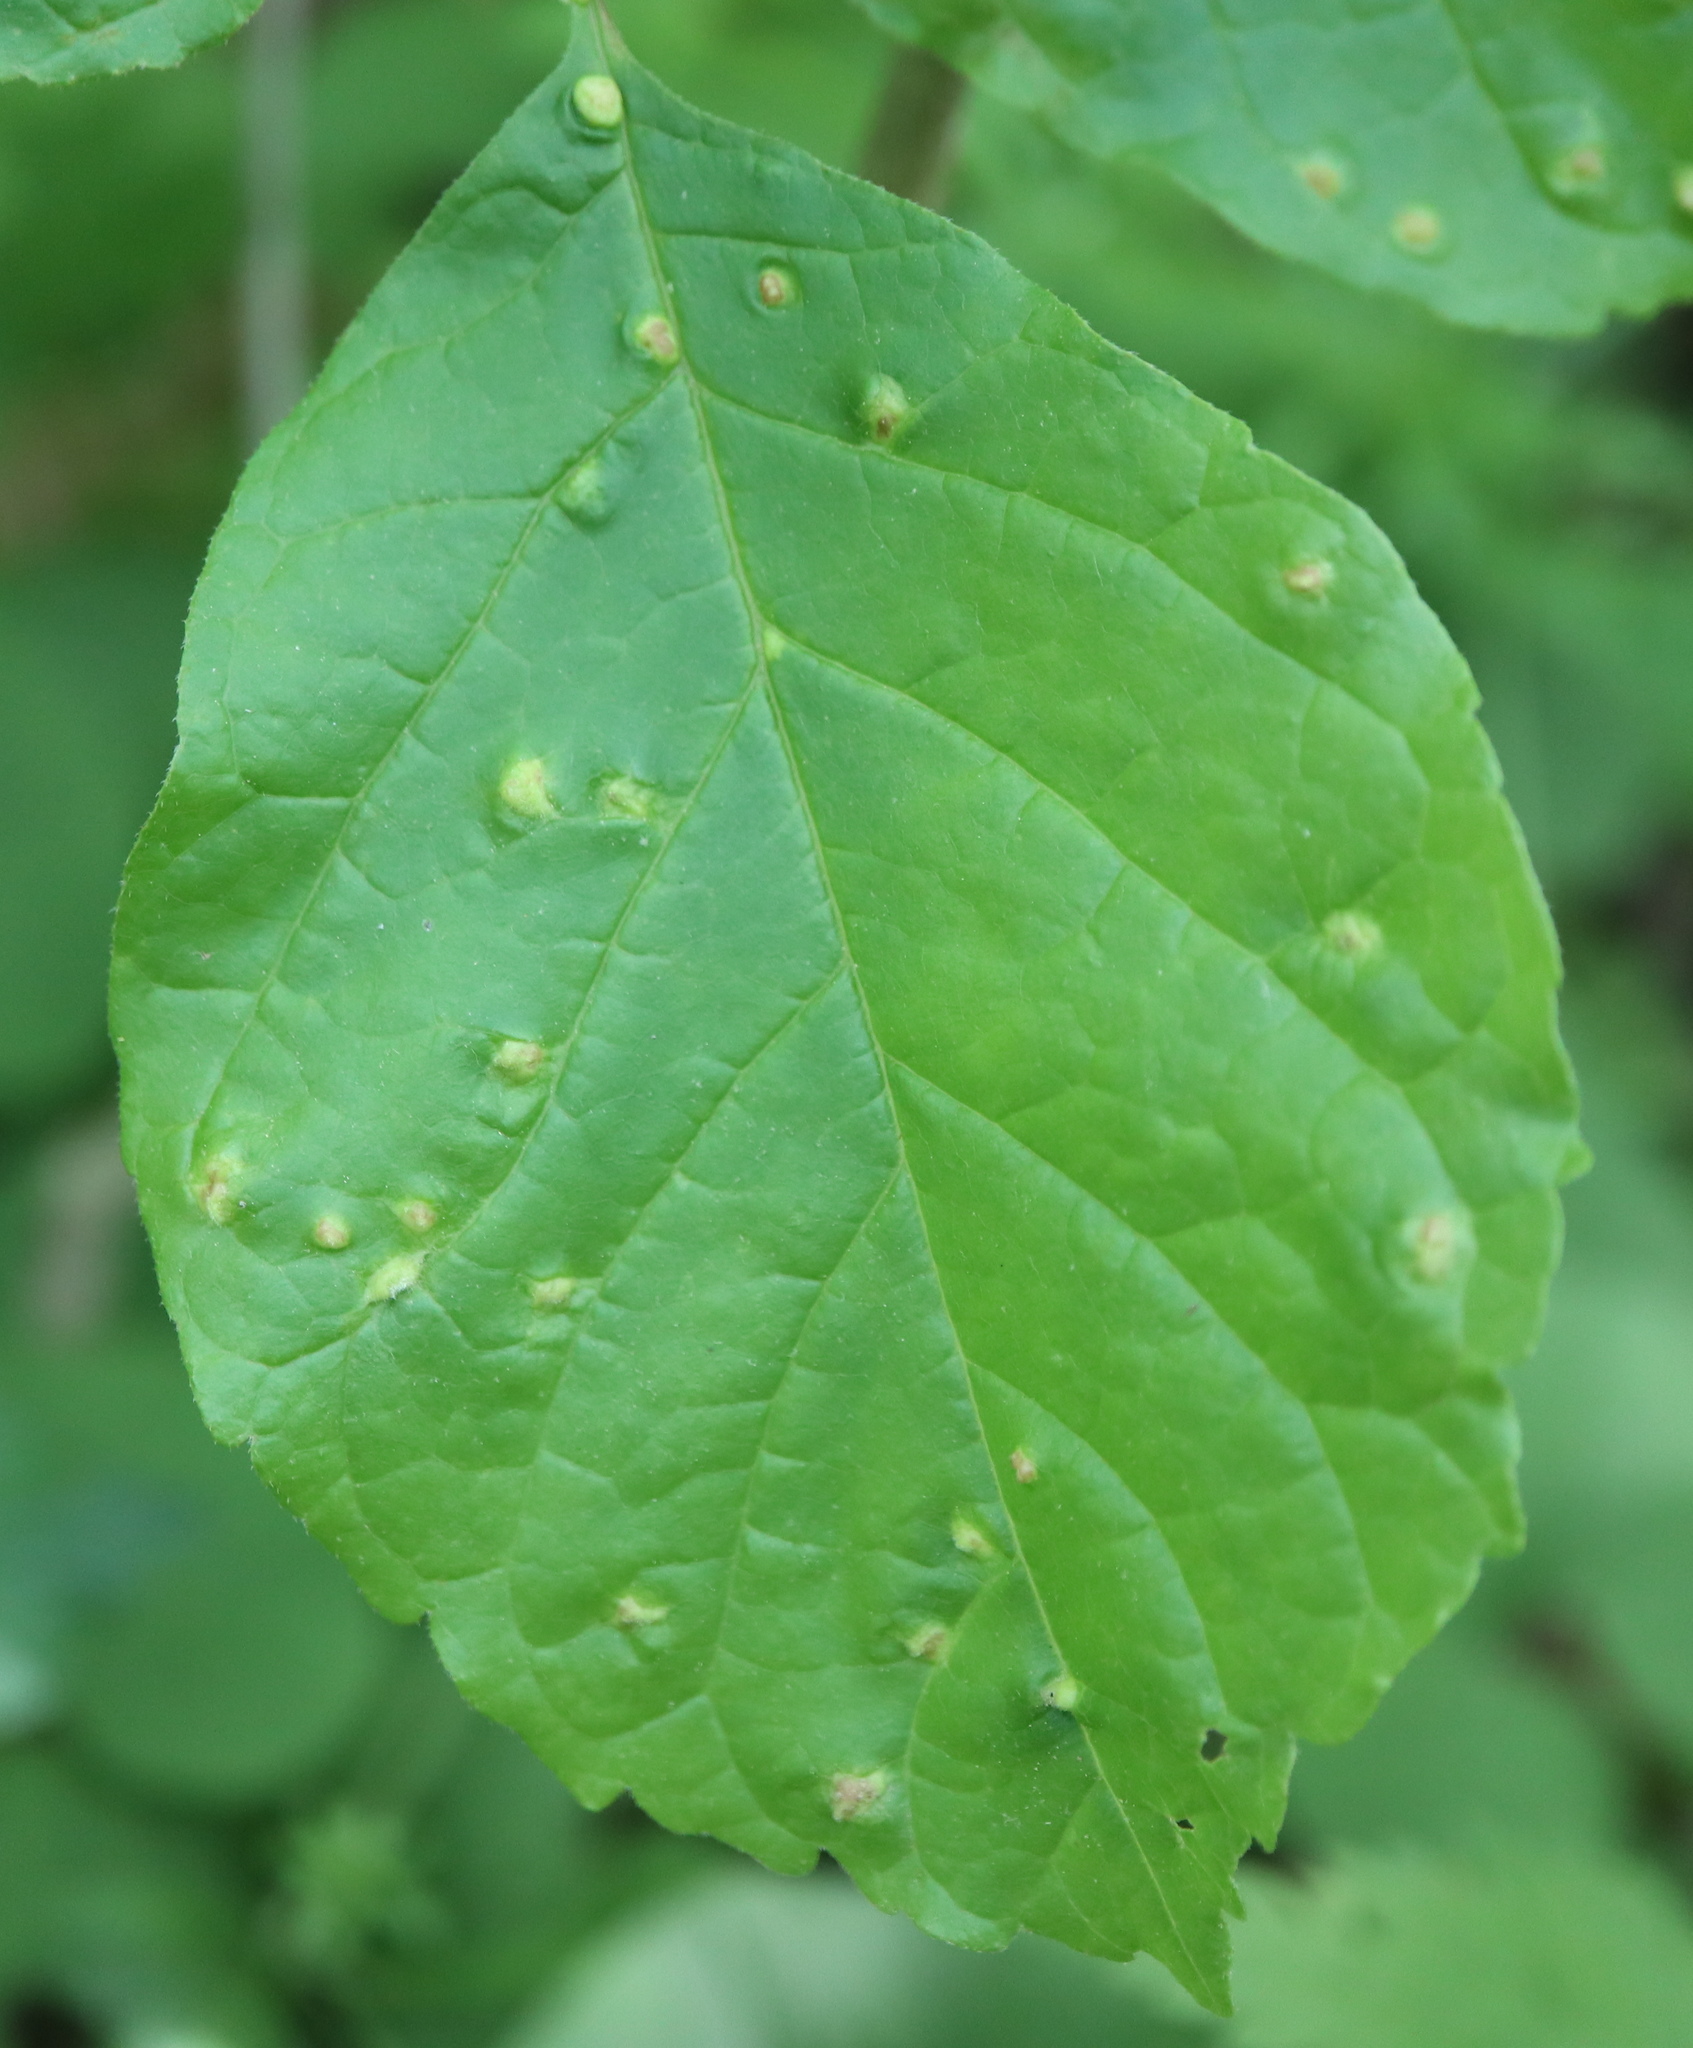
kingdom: Animalia
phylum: Arthropoda
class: Arachnida
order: Trombidiformes
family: Eriophyidae
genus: Aceria
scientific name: Aceria fraxinicola
